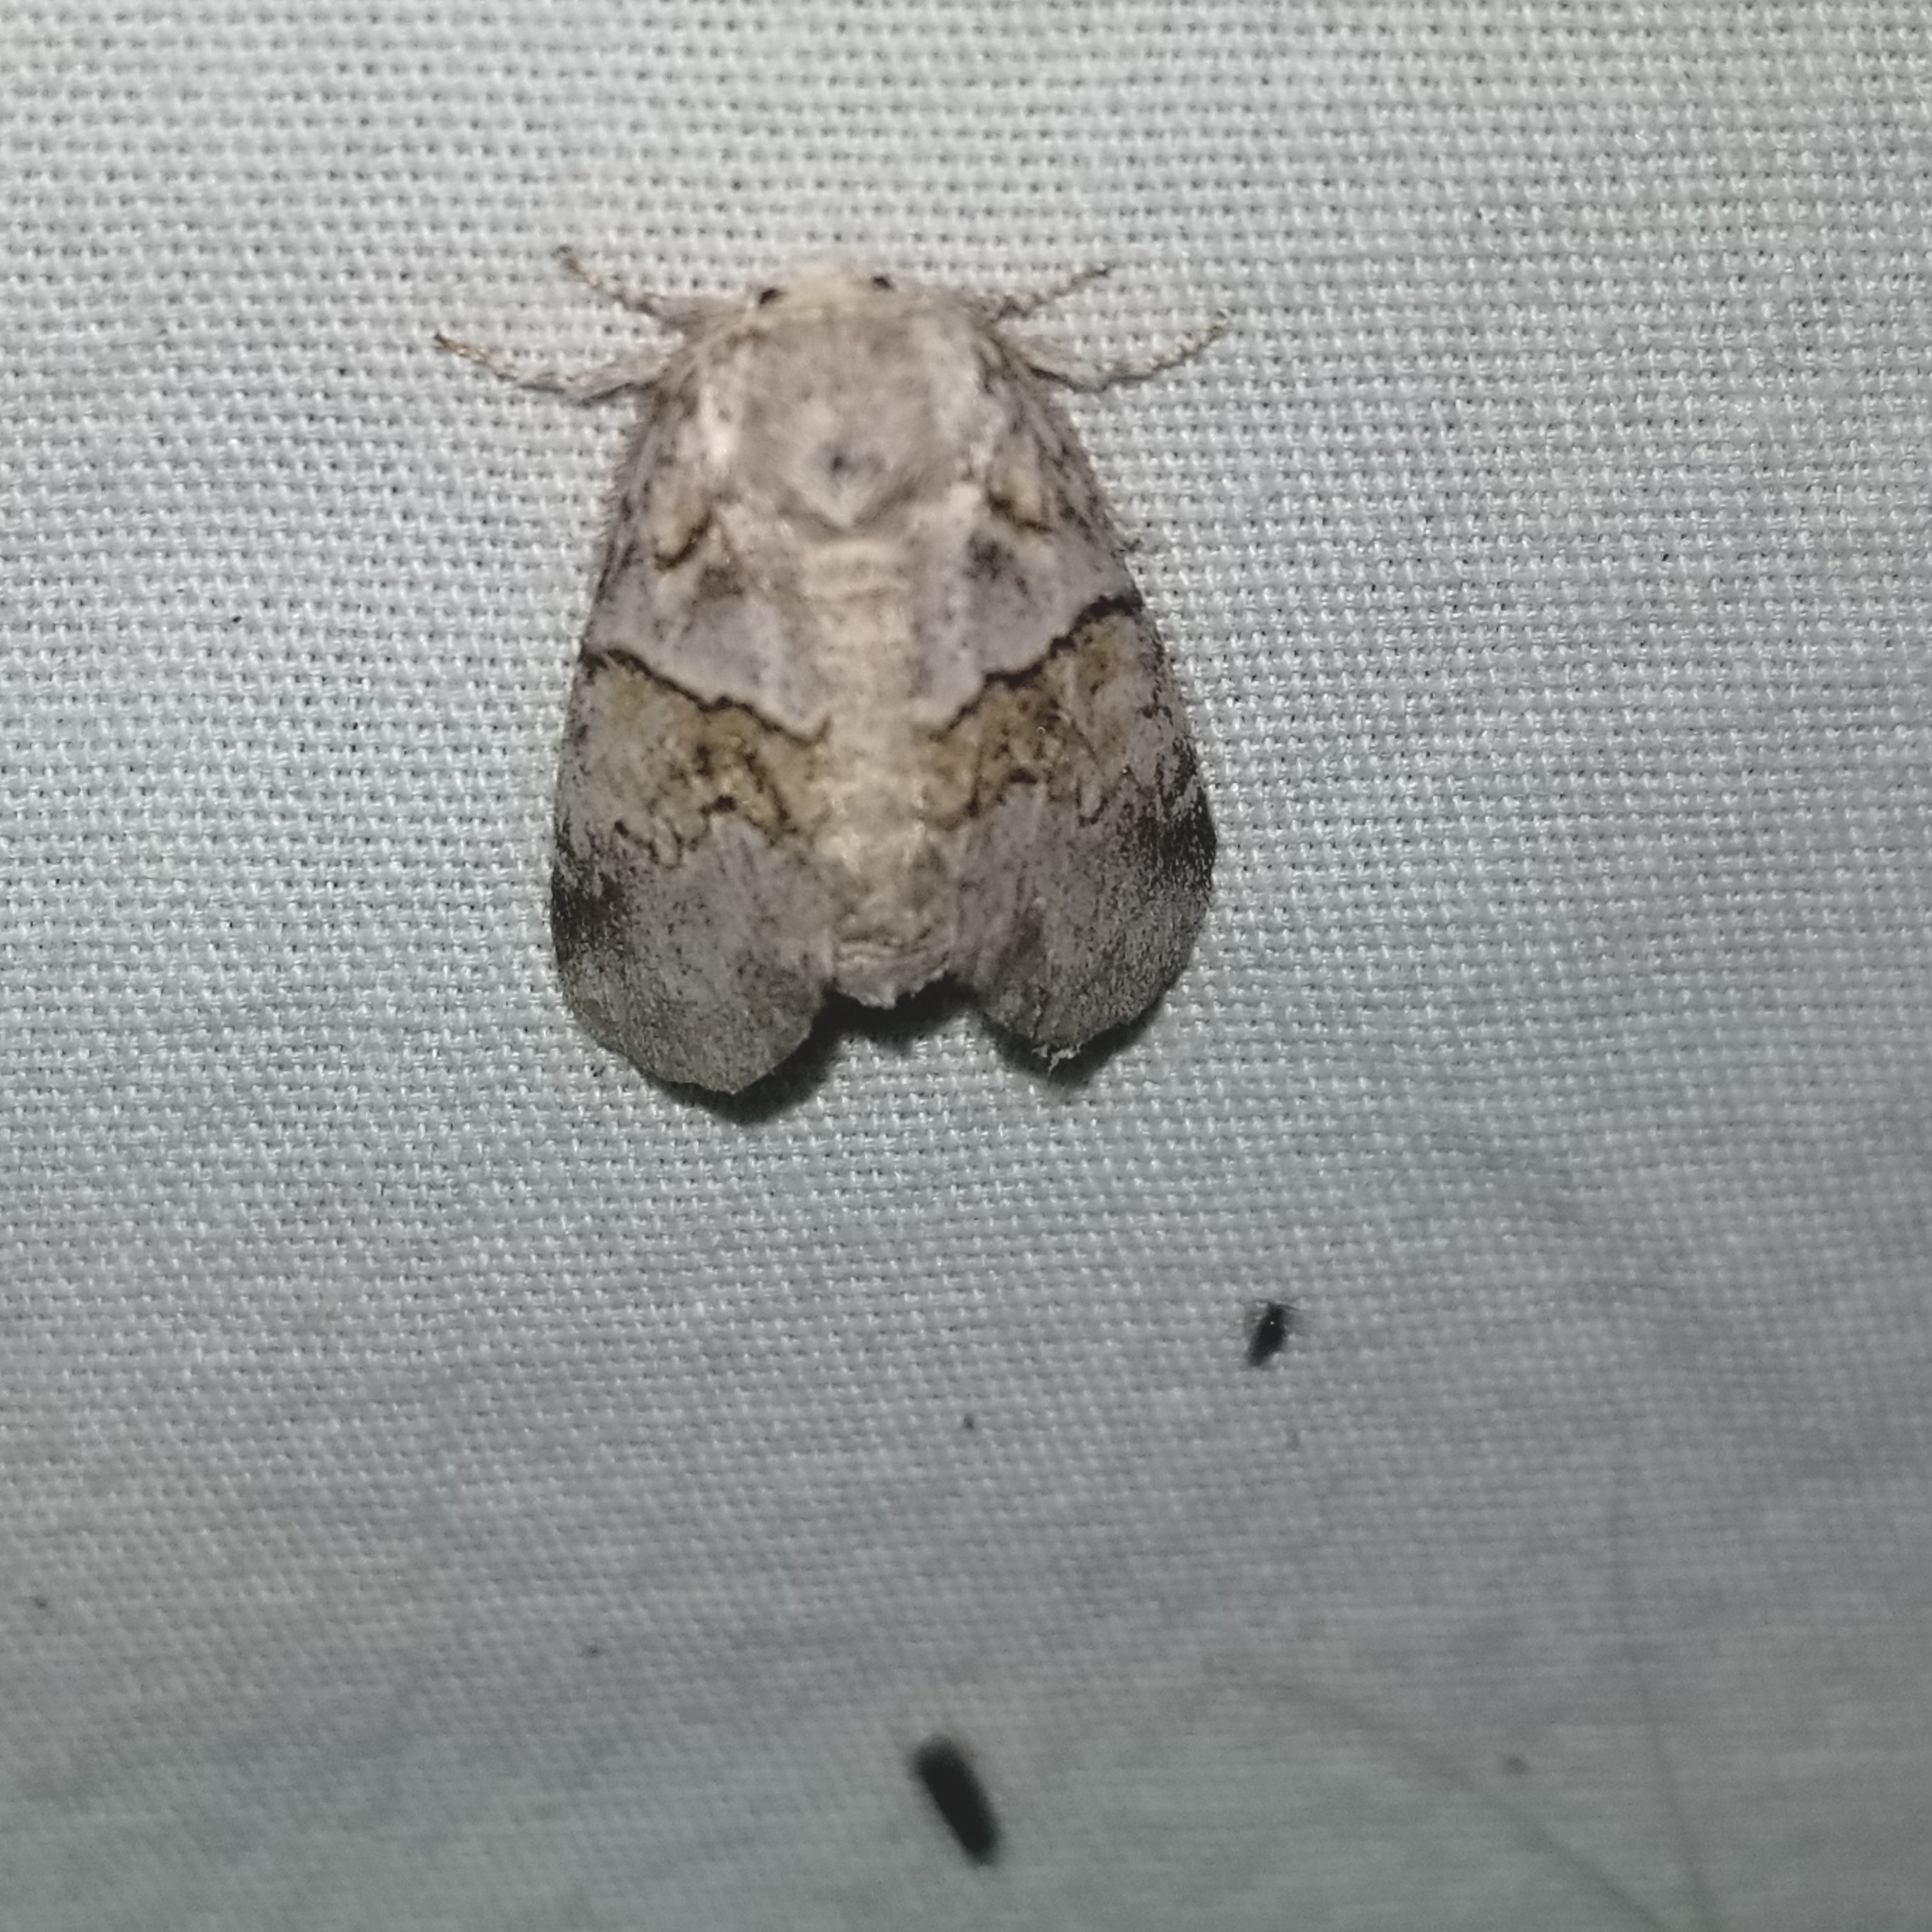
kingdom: Animalia
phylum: Arthropoda
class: Insecta
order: Lepidoptera
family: Notodontidae
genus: Gluphisia
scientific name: Gluphisia septentrionis
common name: Common gluphisia
